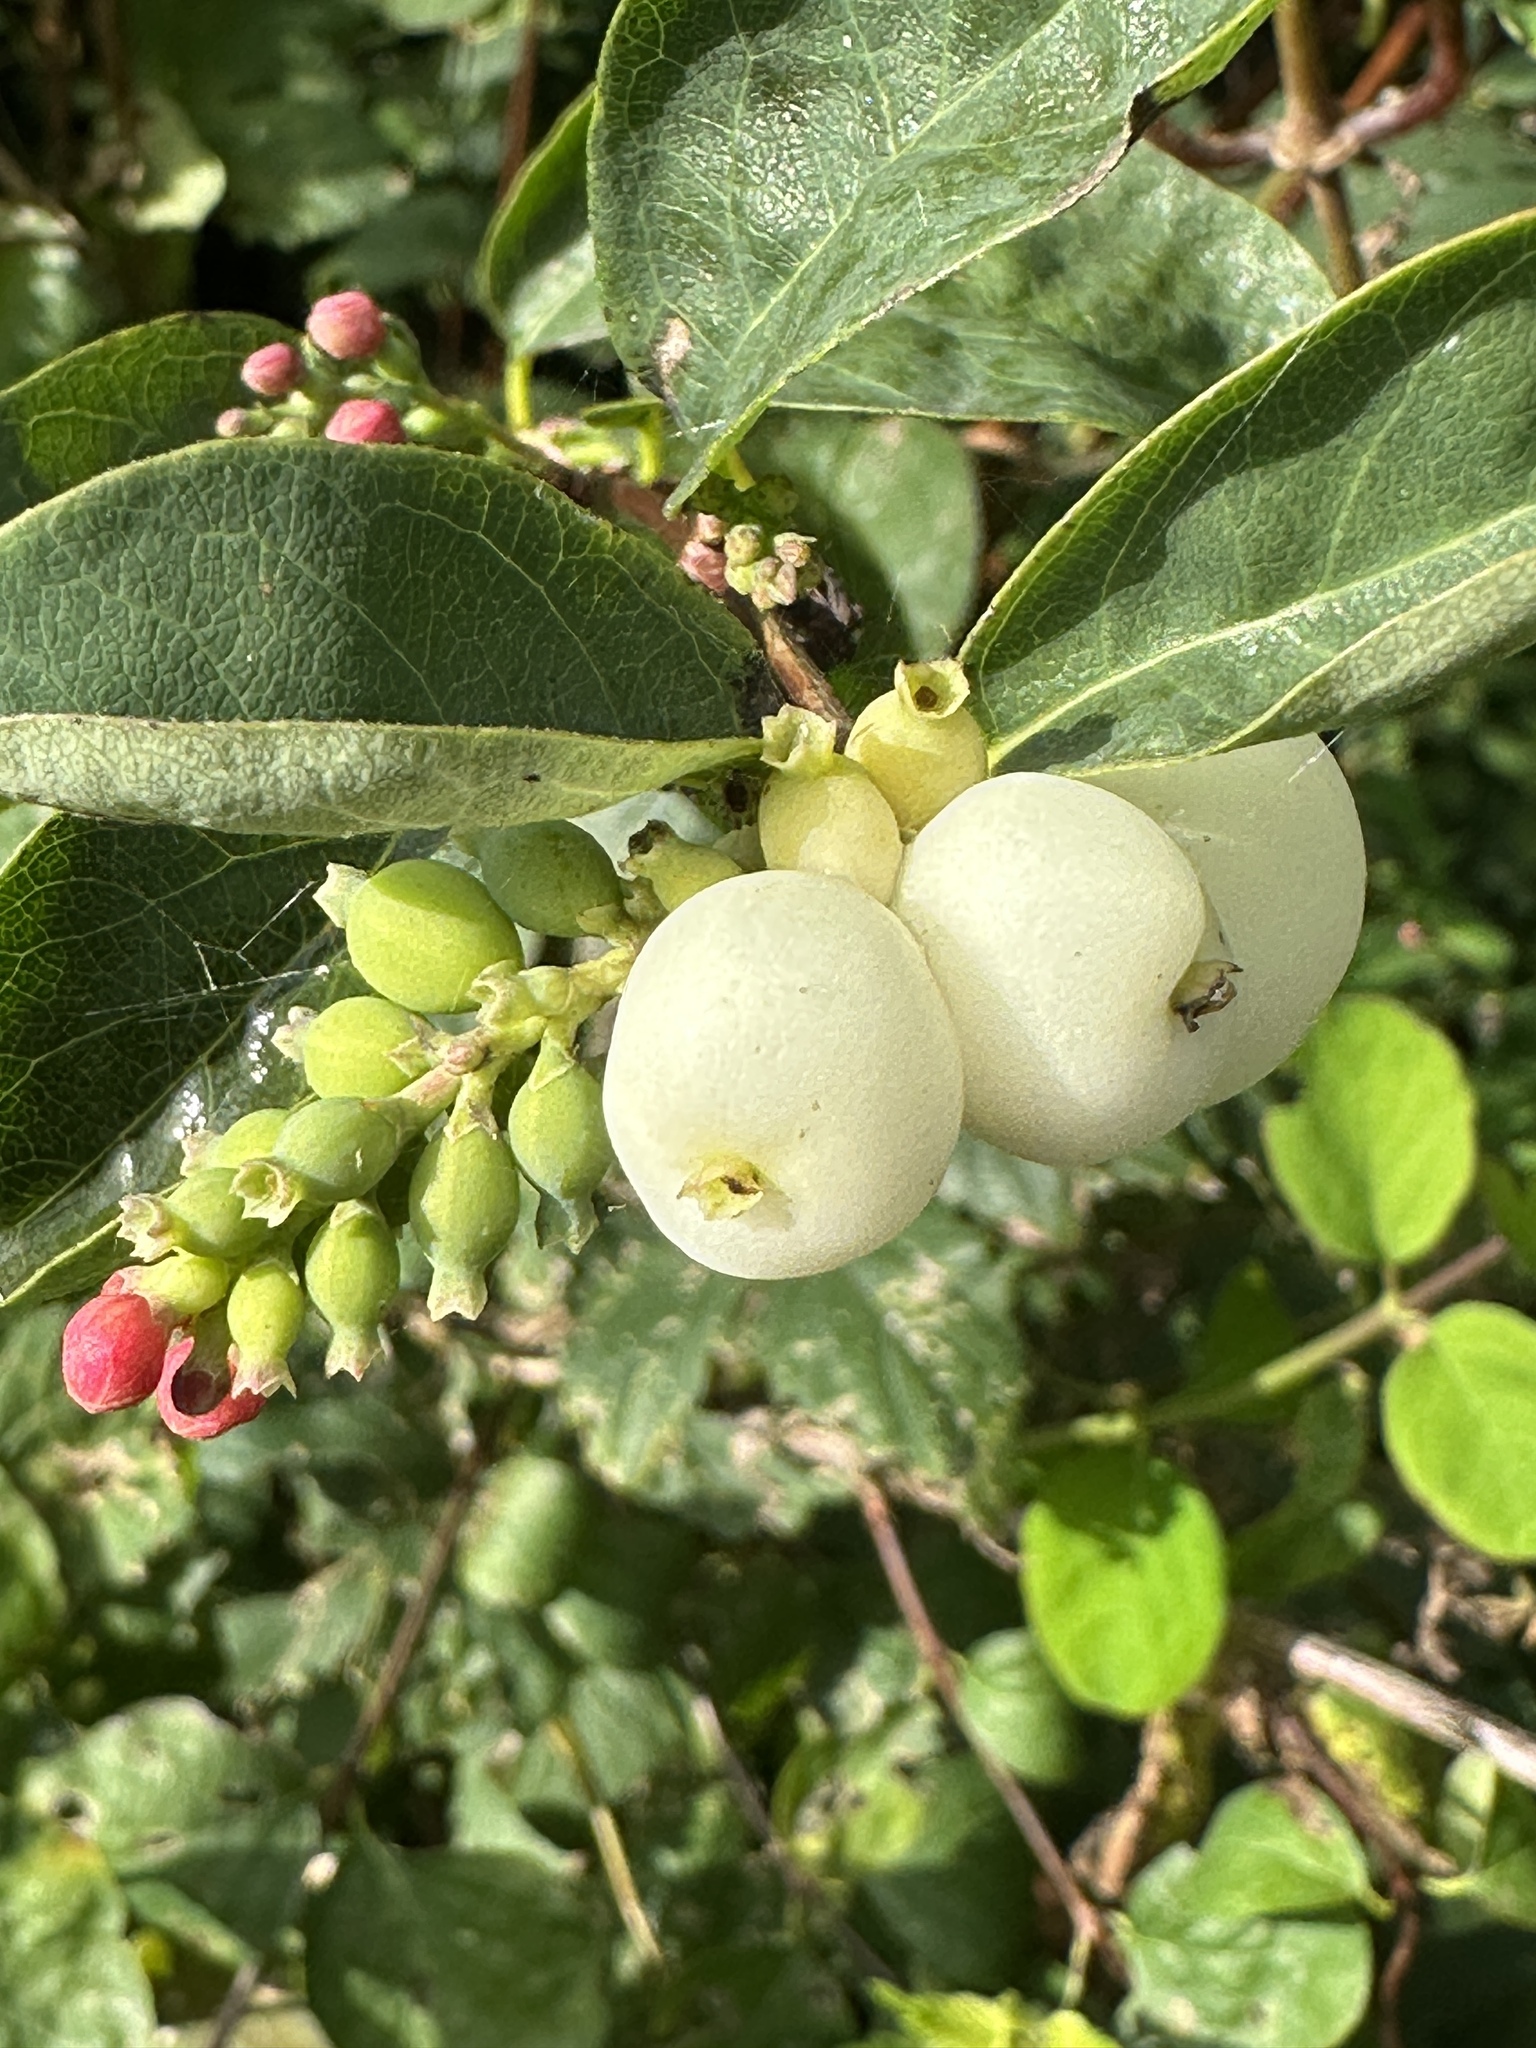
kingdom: Plantae
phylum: Tracheophyta
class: Magnoliopsida
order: Dipsacales
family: Caprifoliaceae
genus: Symphoricarpos
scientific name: Symphoricarpos albus
